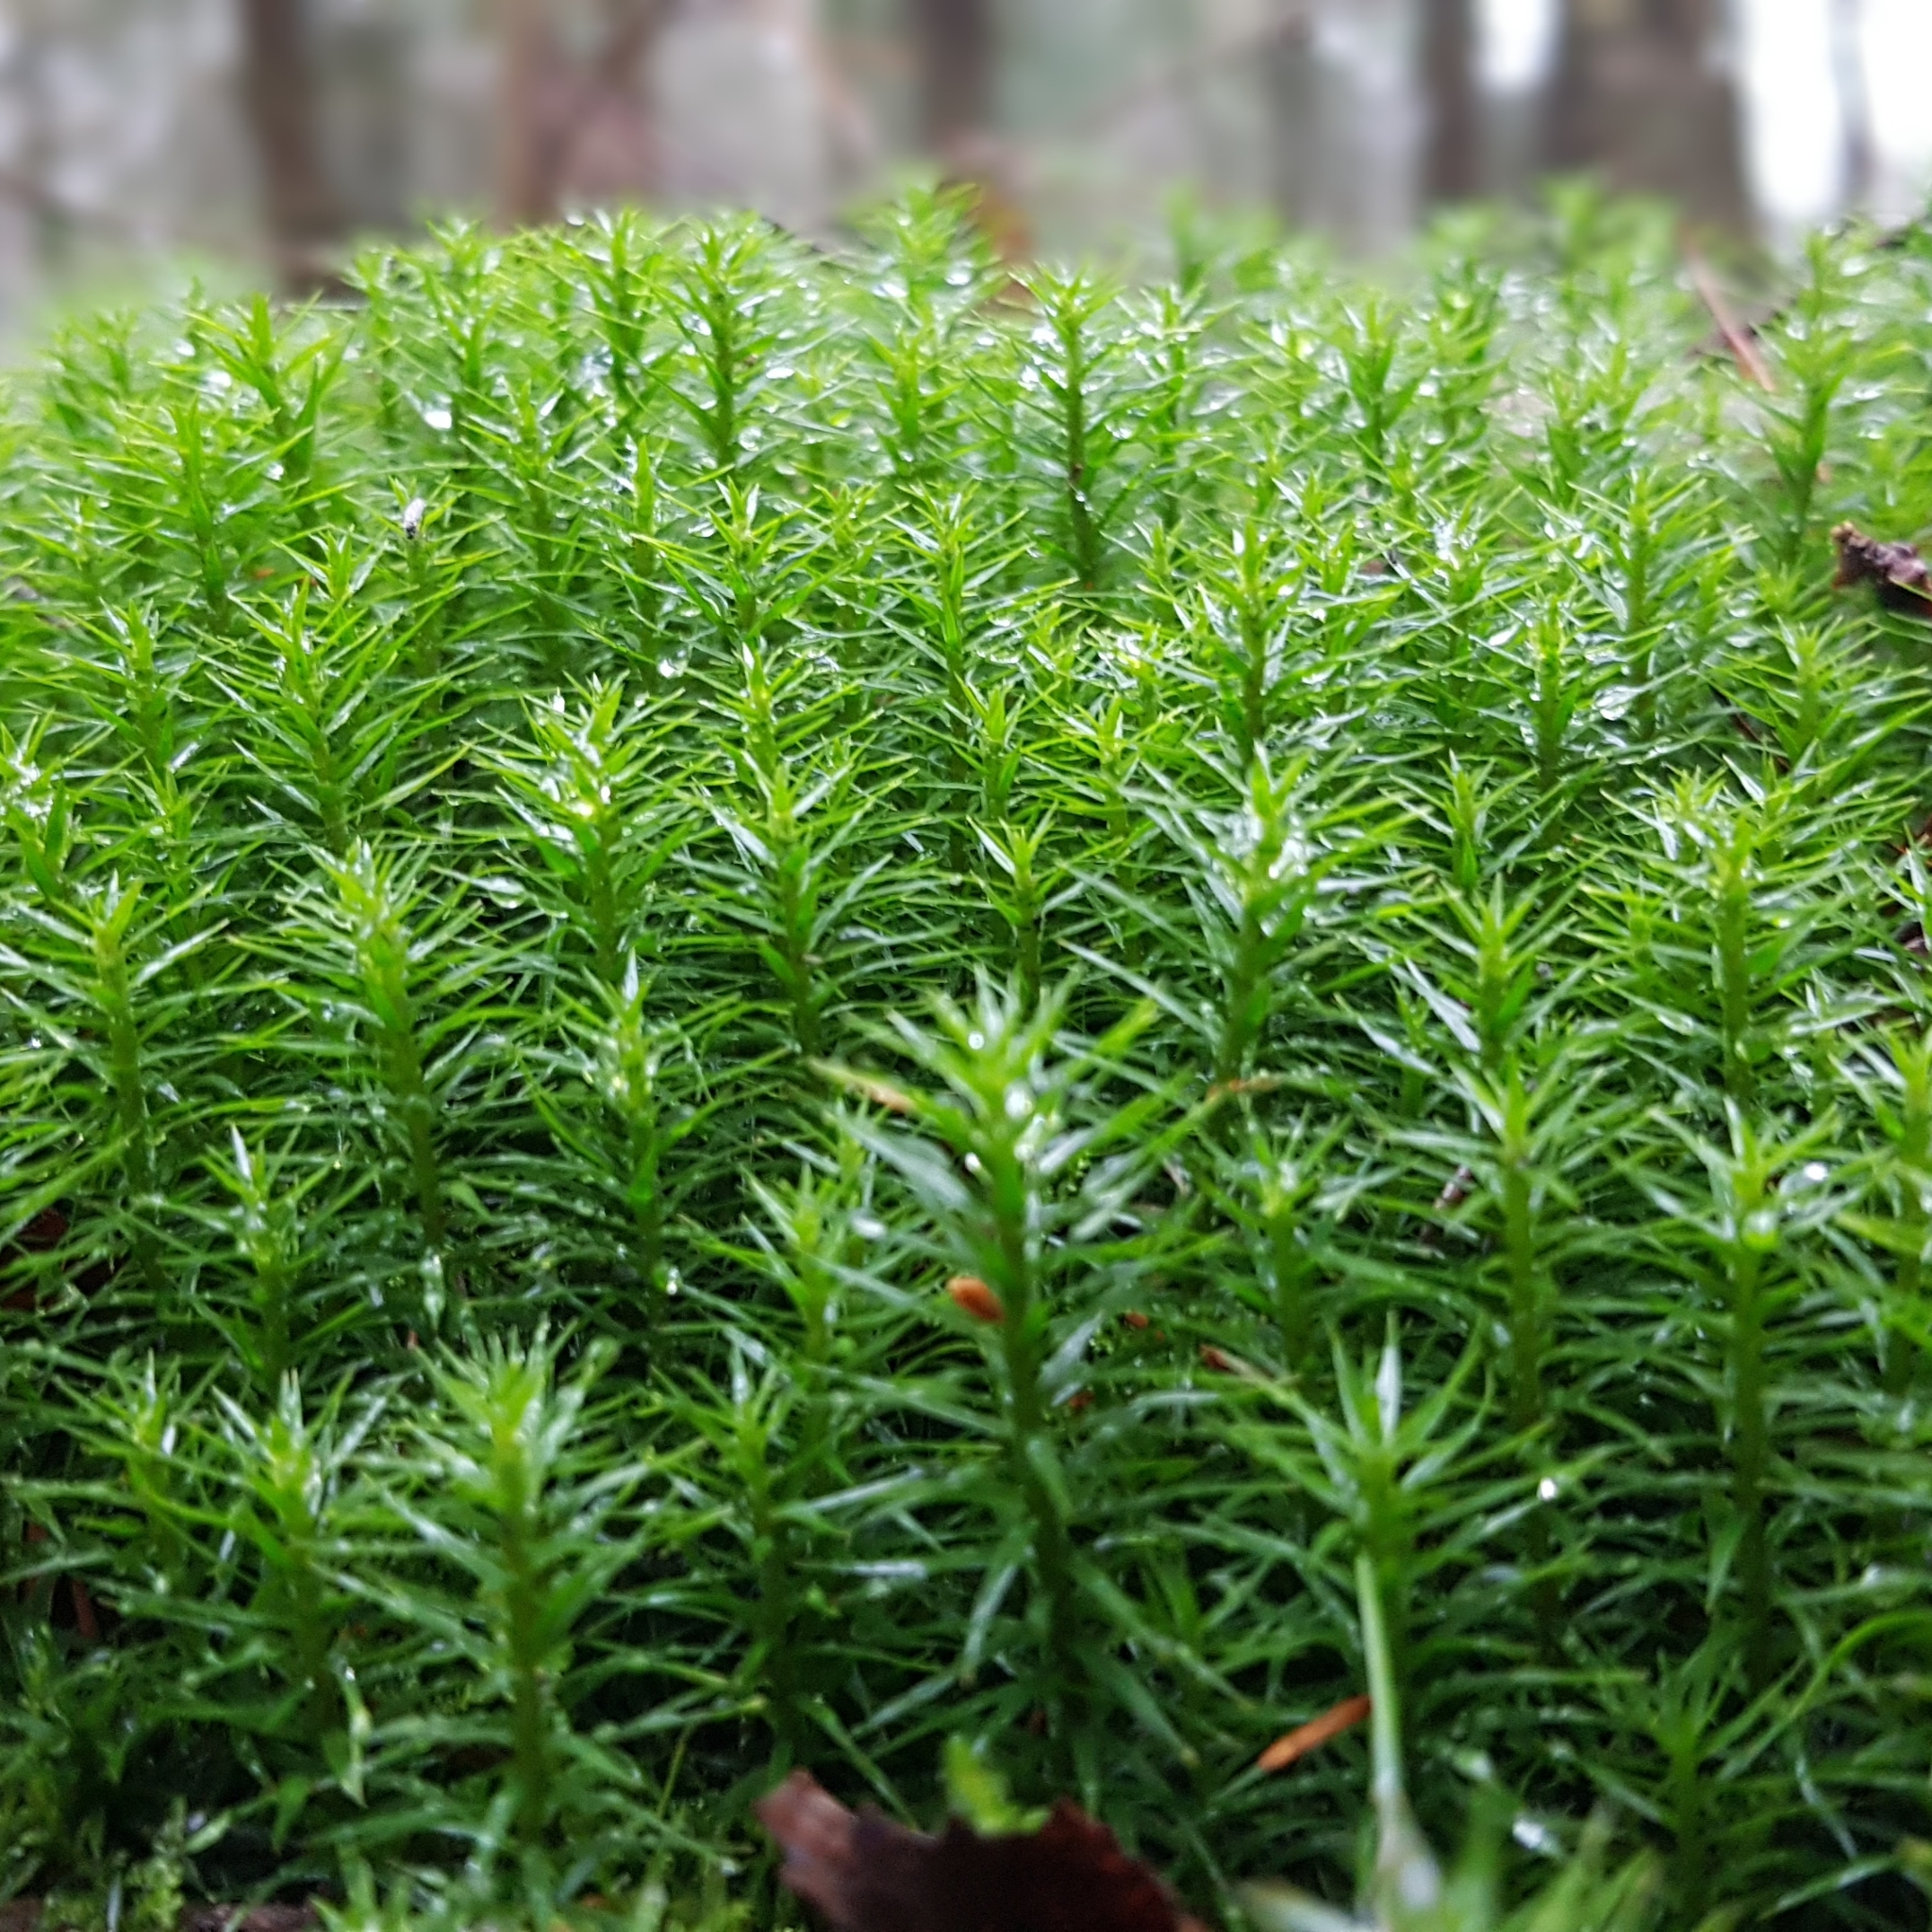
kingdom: Plantae
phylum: Bryophyta
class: Polytrichopsida
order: Polytrichales
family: Polytrichaceae
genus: Polytrichum
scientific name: Polytrichum formosum
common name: Bank haircap moss
